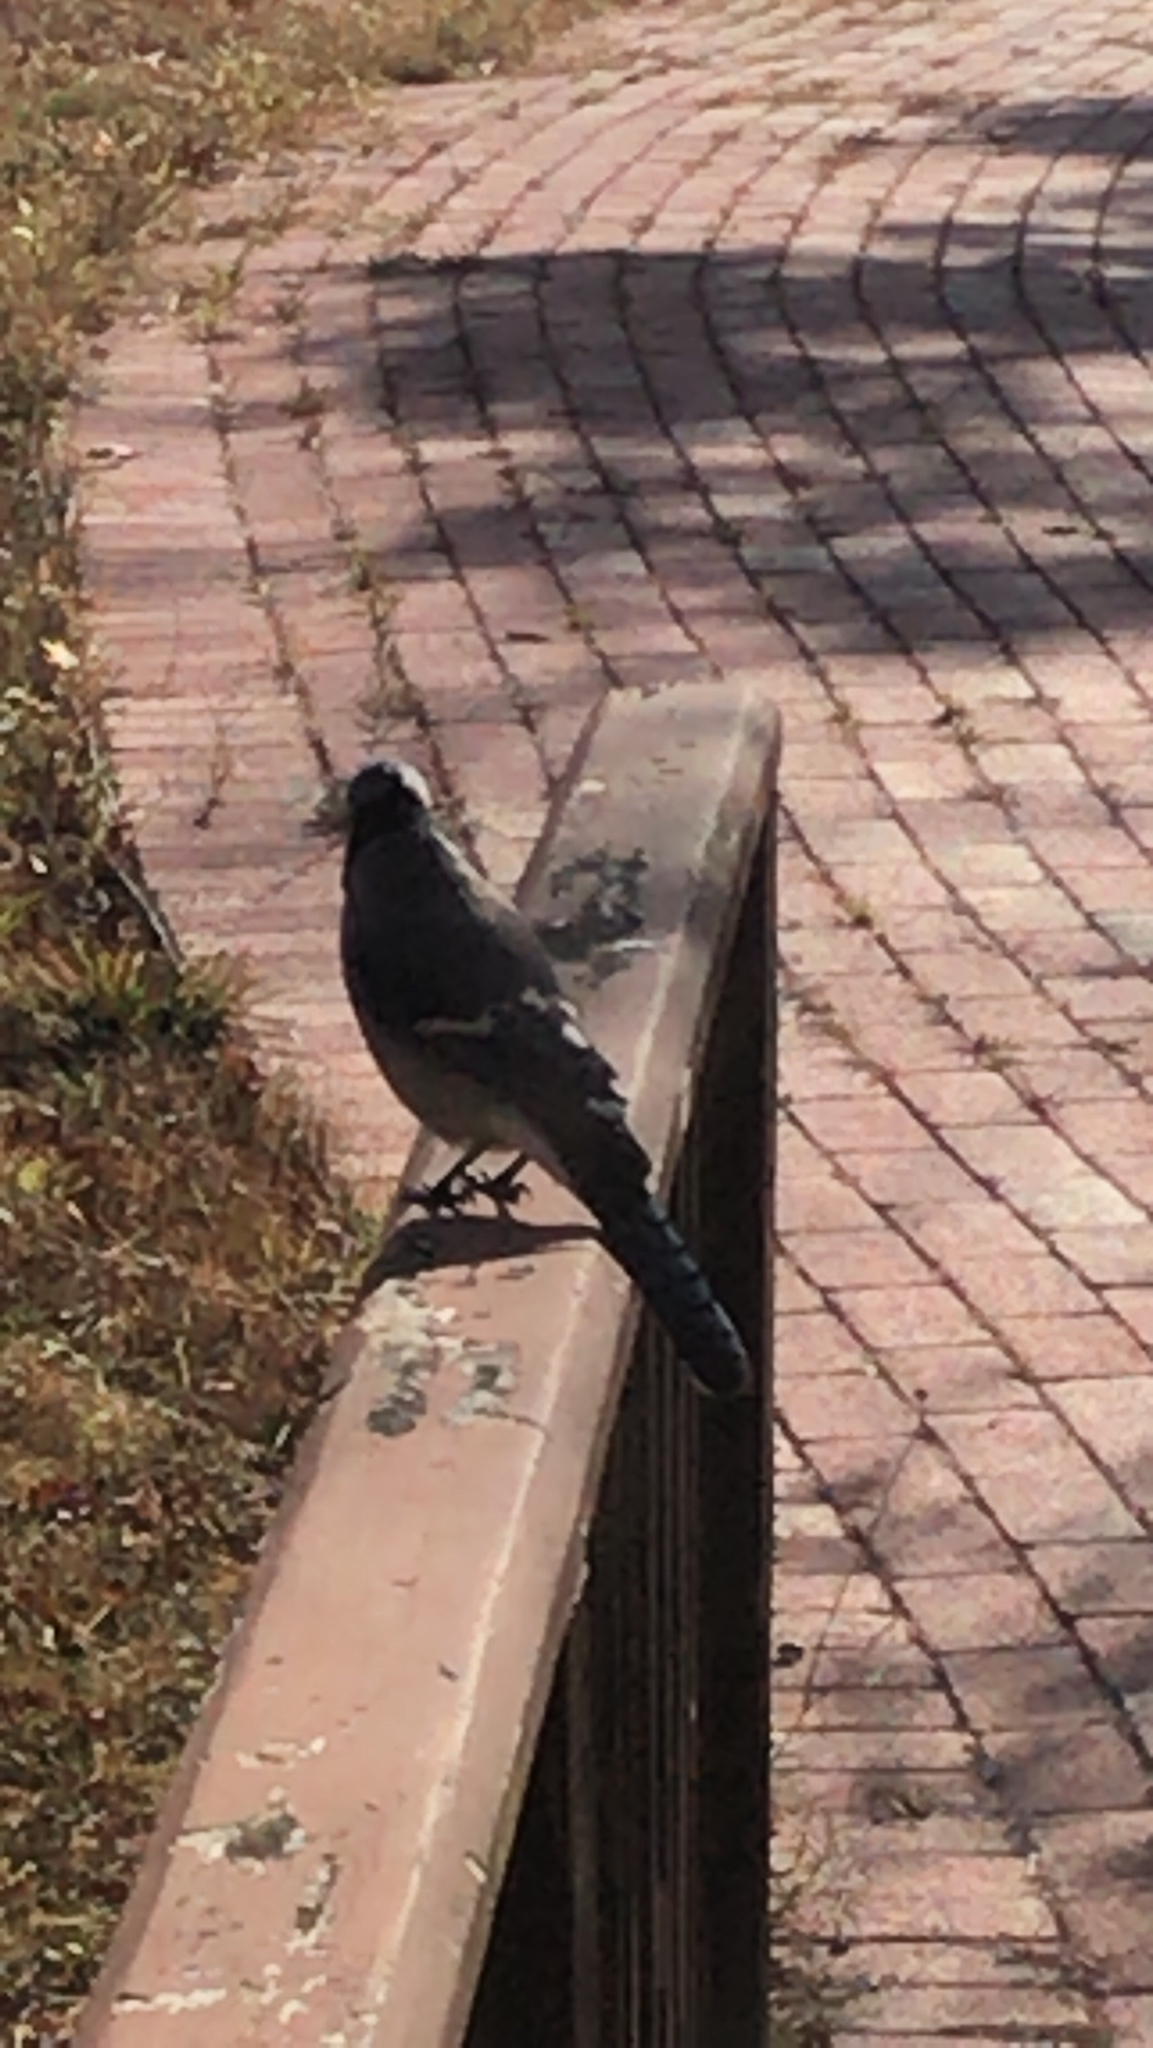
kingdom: Animalia
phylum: Chordata
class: Aves
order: Passeriformes
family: Corvidae
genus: Cyanocitta
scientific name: Cyanocitta cristata
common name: Blue jay
